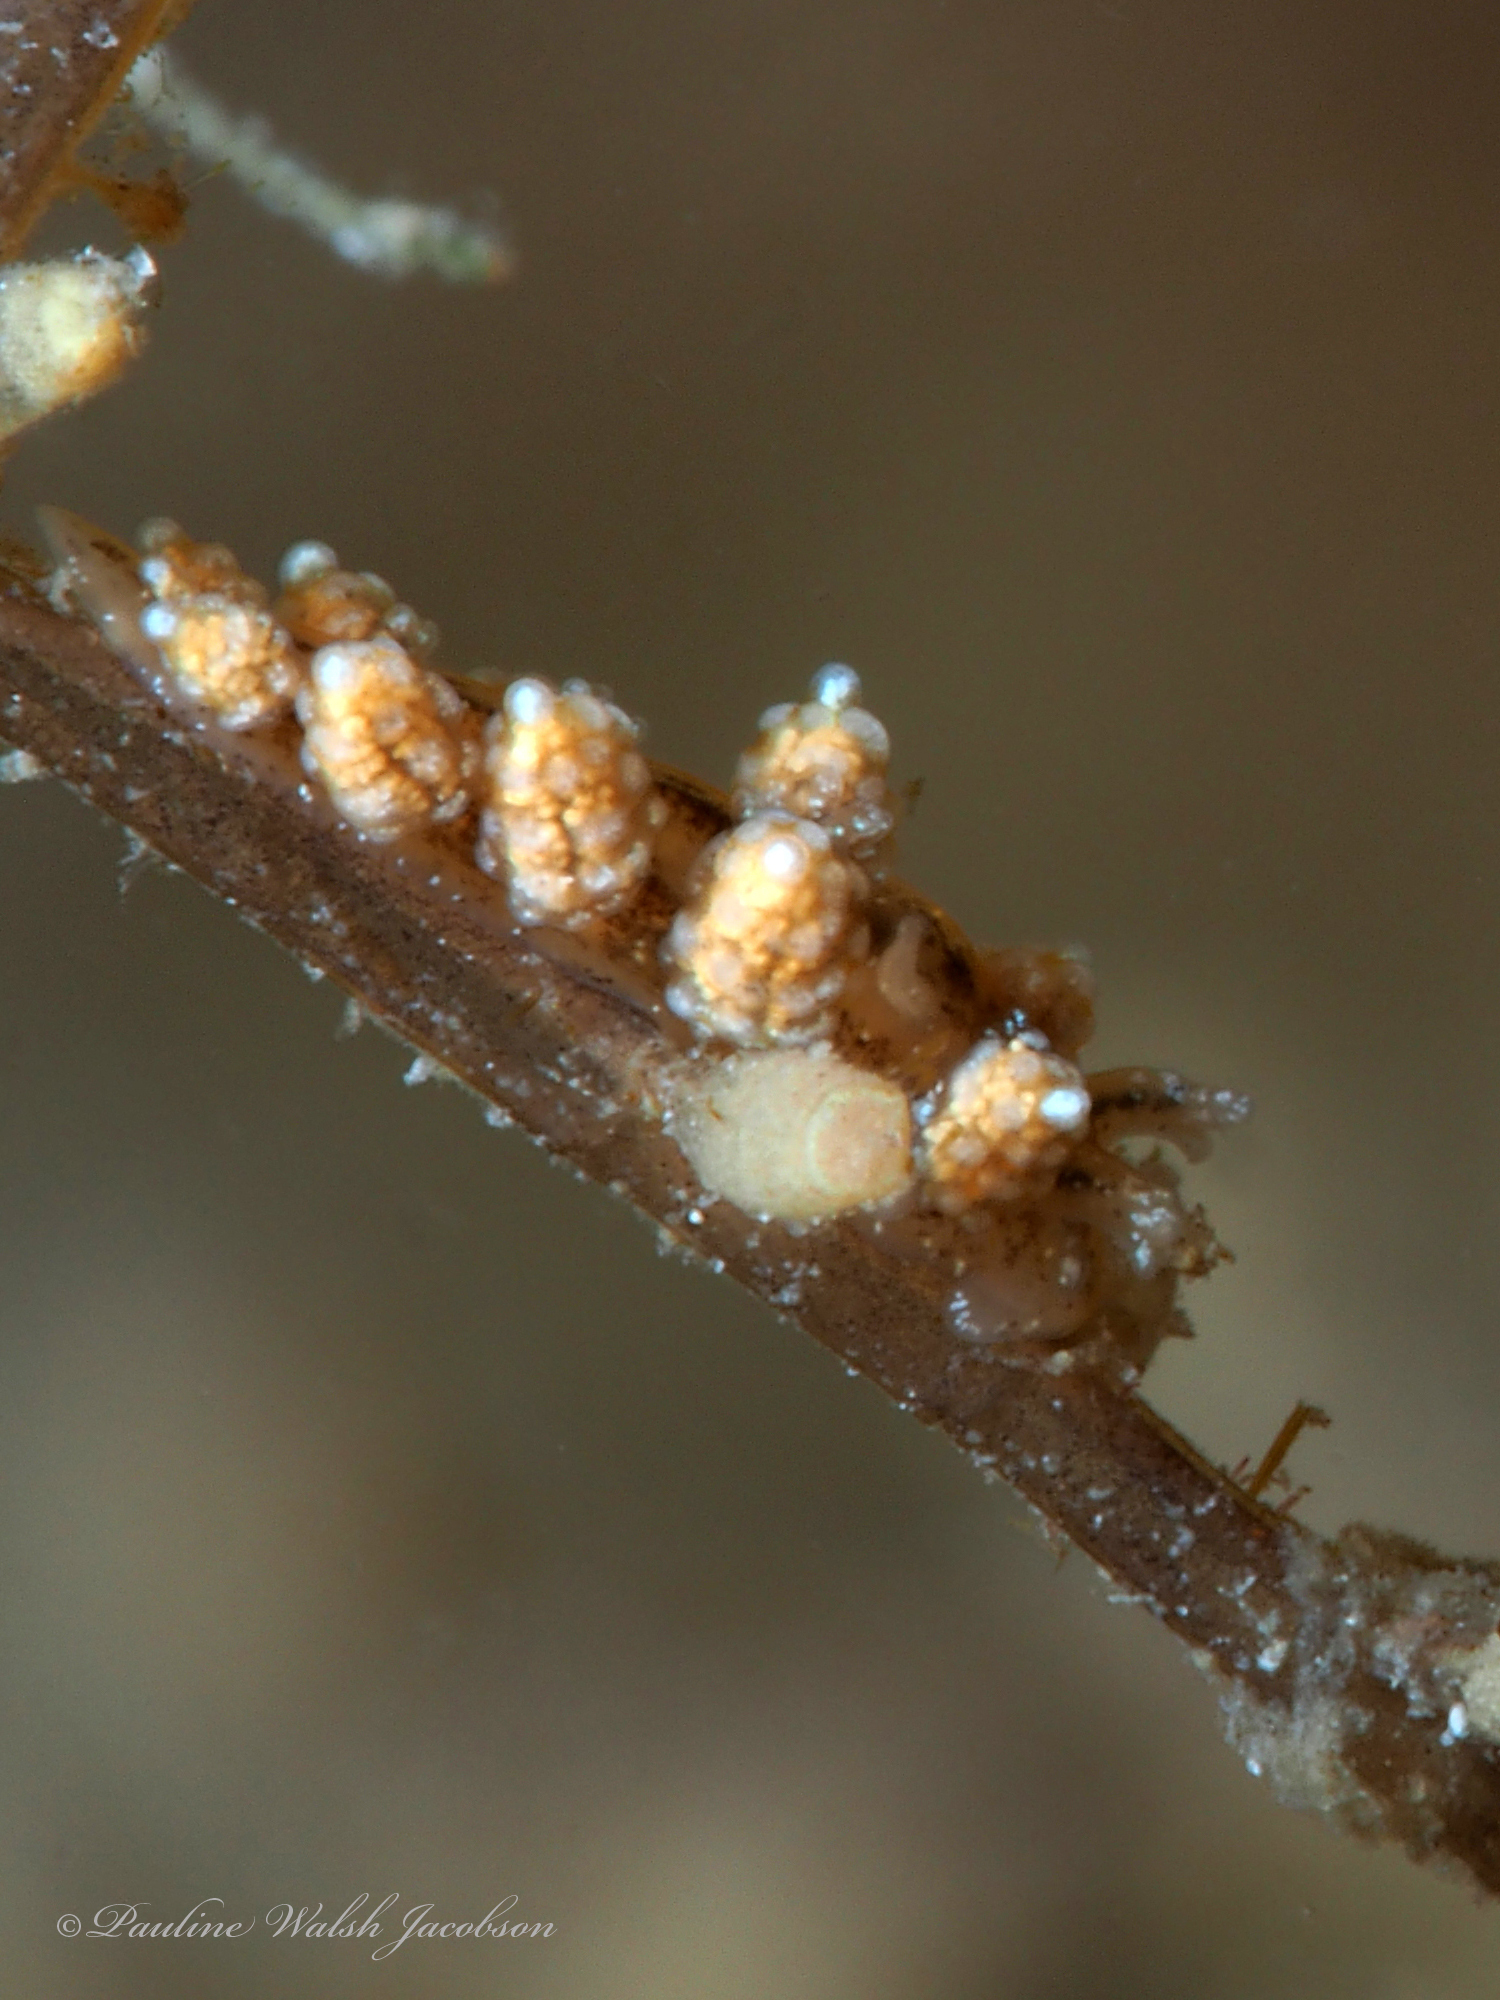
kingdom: Animalia
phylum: Mollusca
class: Gastropoda
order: Nudibranchia
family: Dotidae
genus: Doto
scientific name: Doto chica
